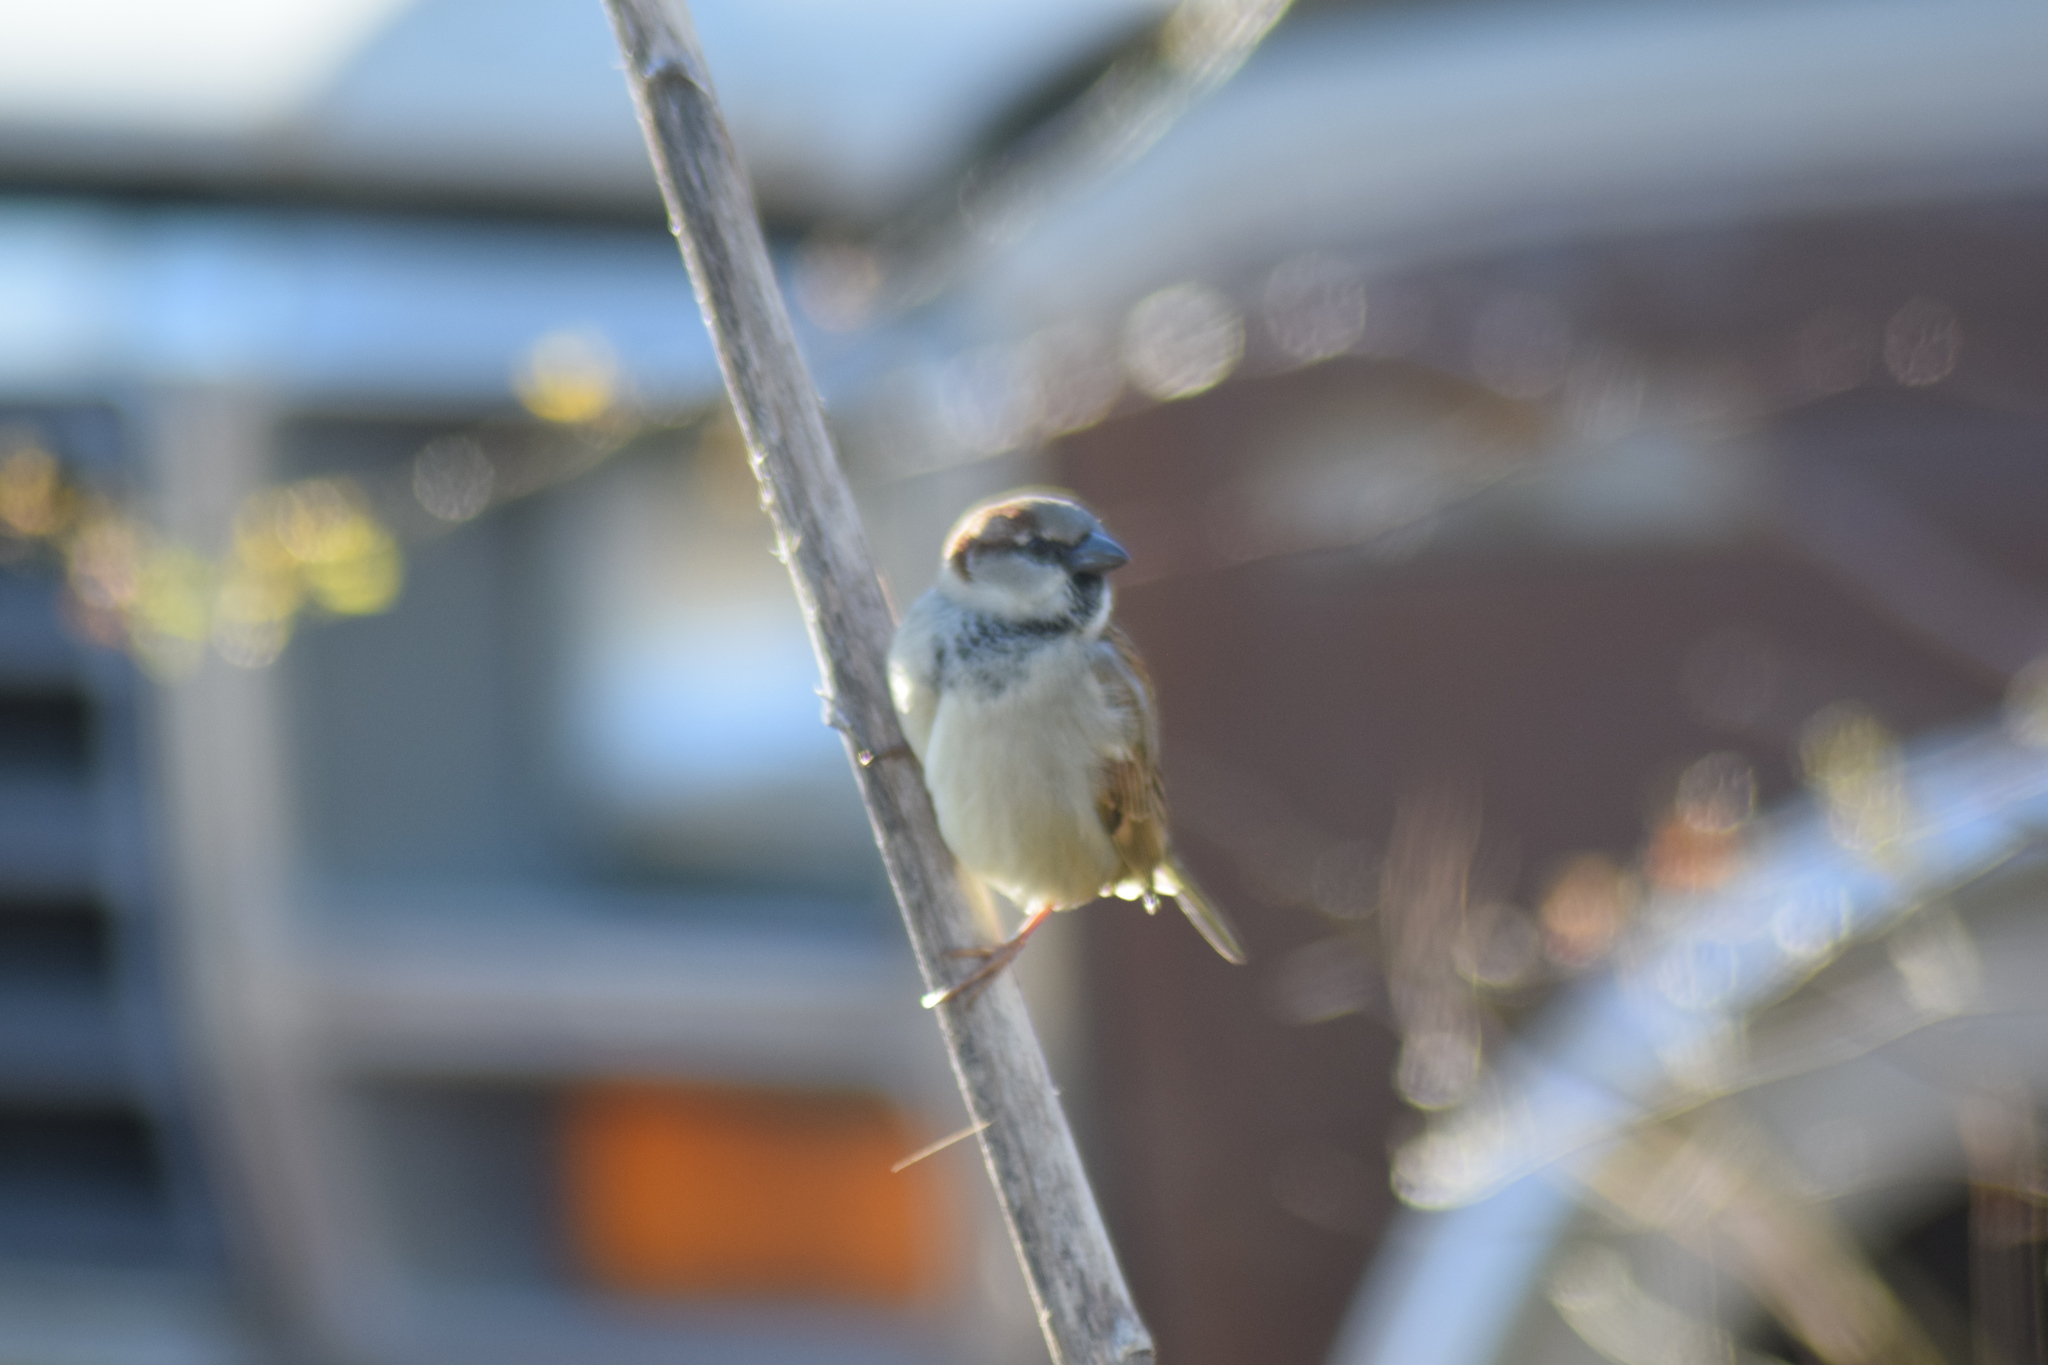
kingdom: Animalia
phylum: Chordata
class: Aves
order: Passeriformes
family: Passeridae
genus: Passer
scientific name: Passer domesticus
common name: House sparrow
